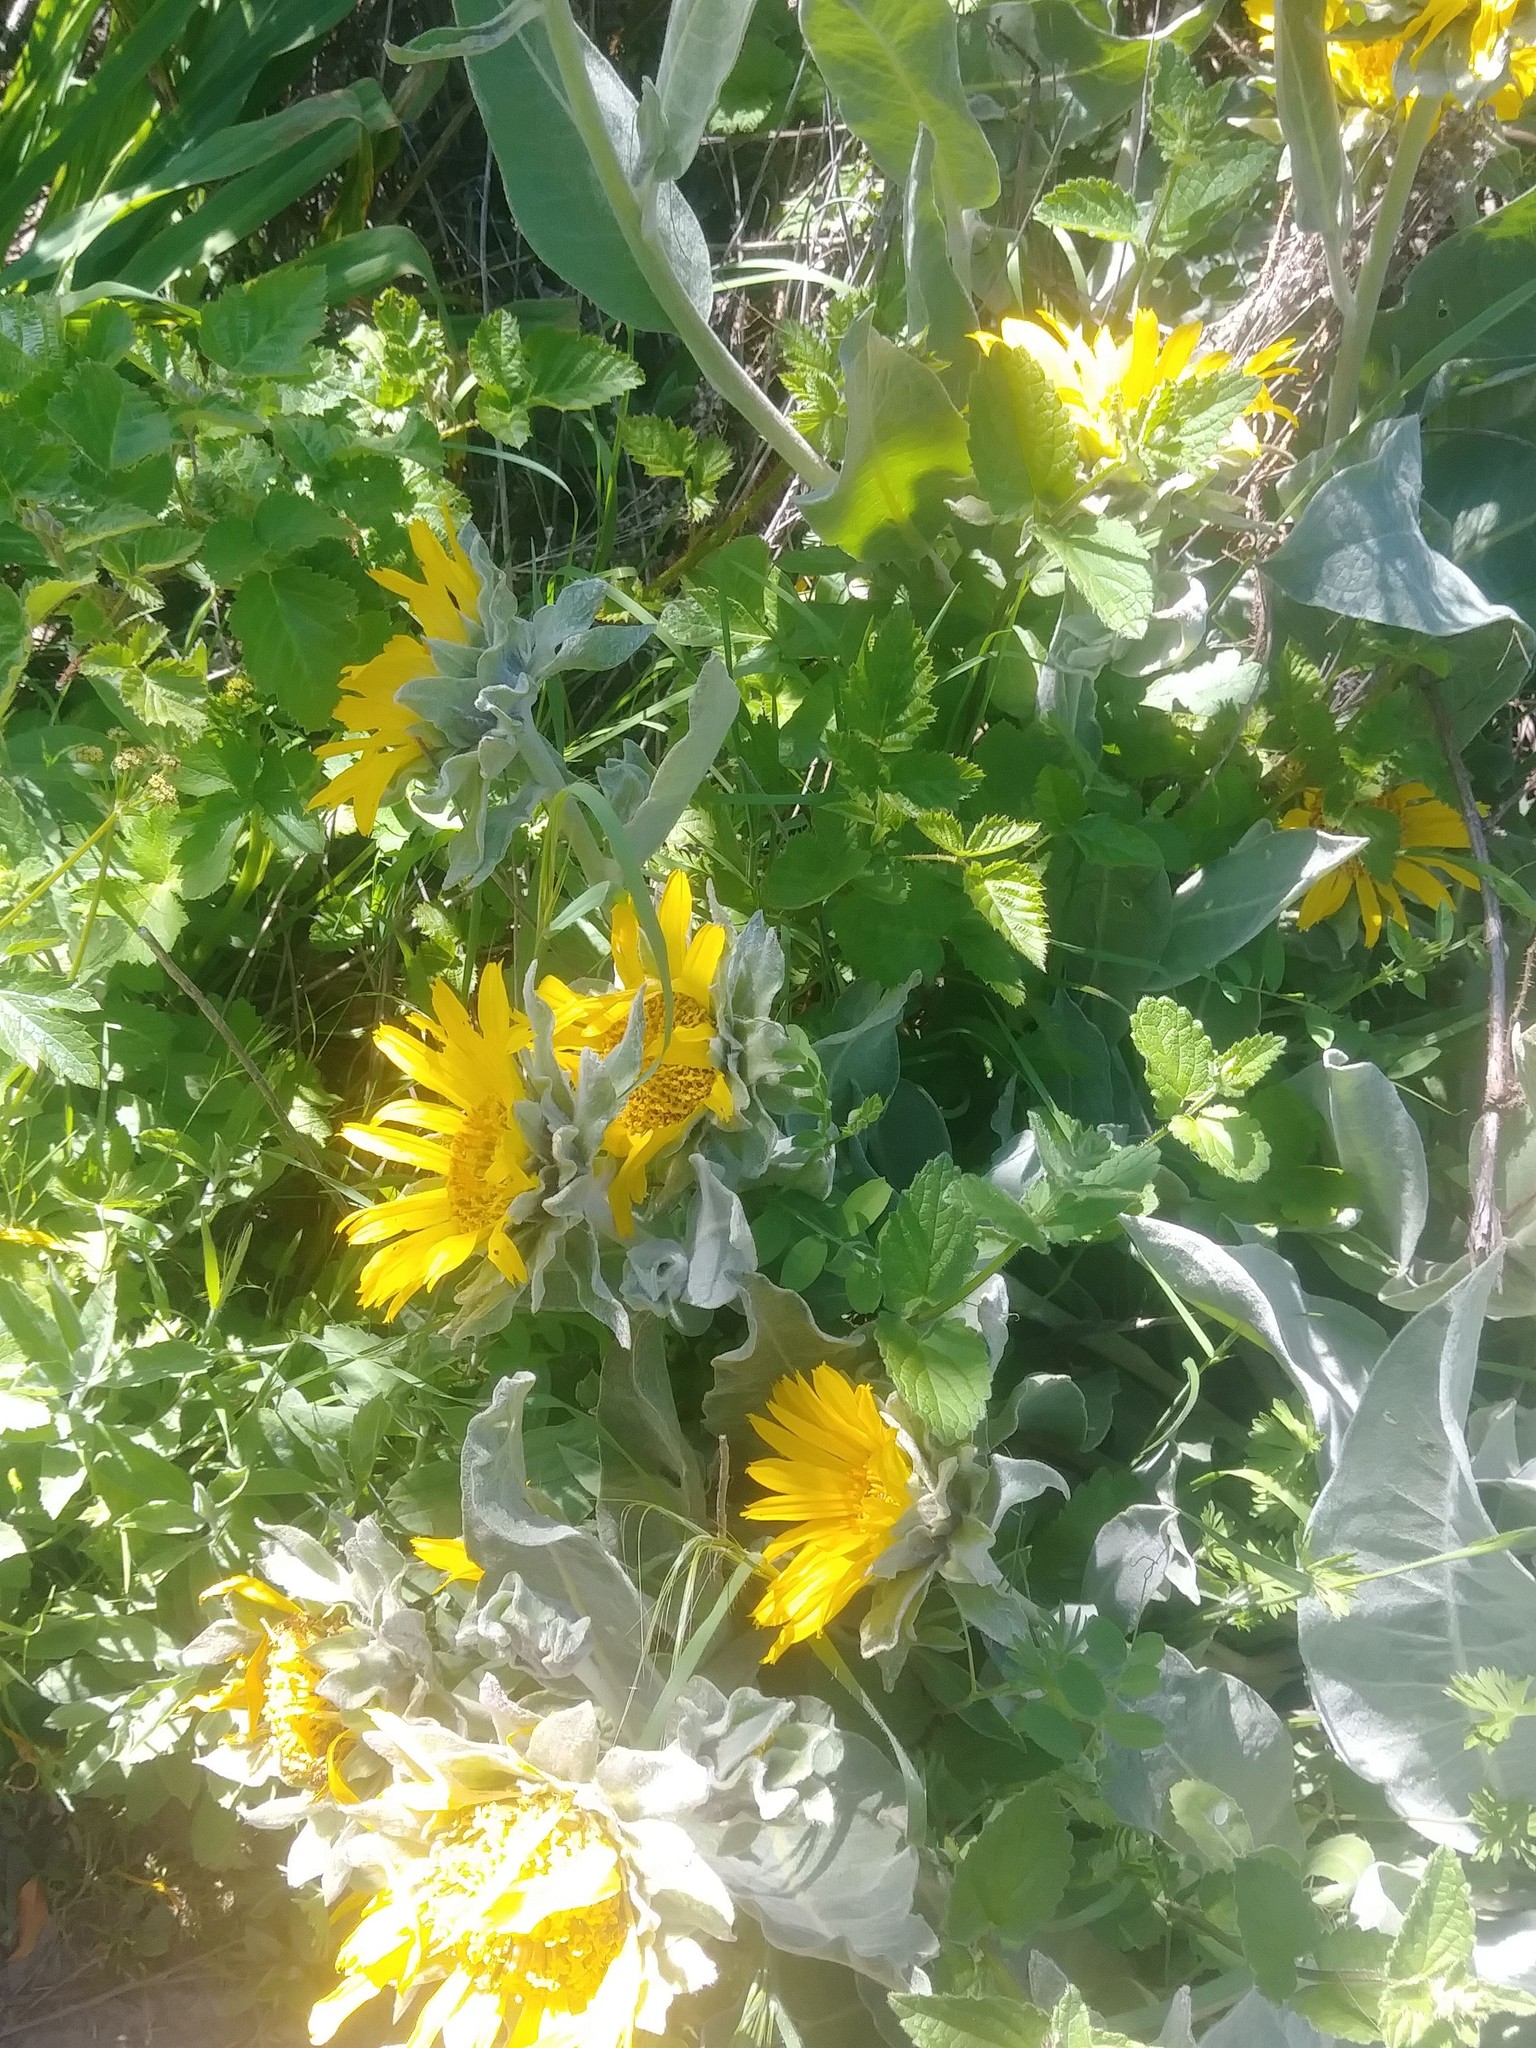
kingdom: Plantae
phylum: Tracheophyta
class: Magnoliopsida
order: Asterales
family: Asteraceae
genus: Wyethia
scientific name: Wyethia helenioides
